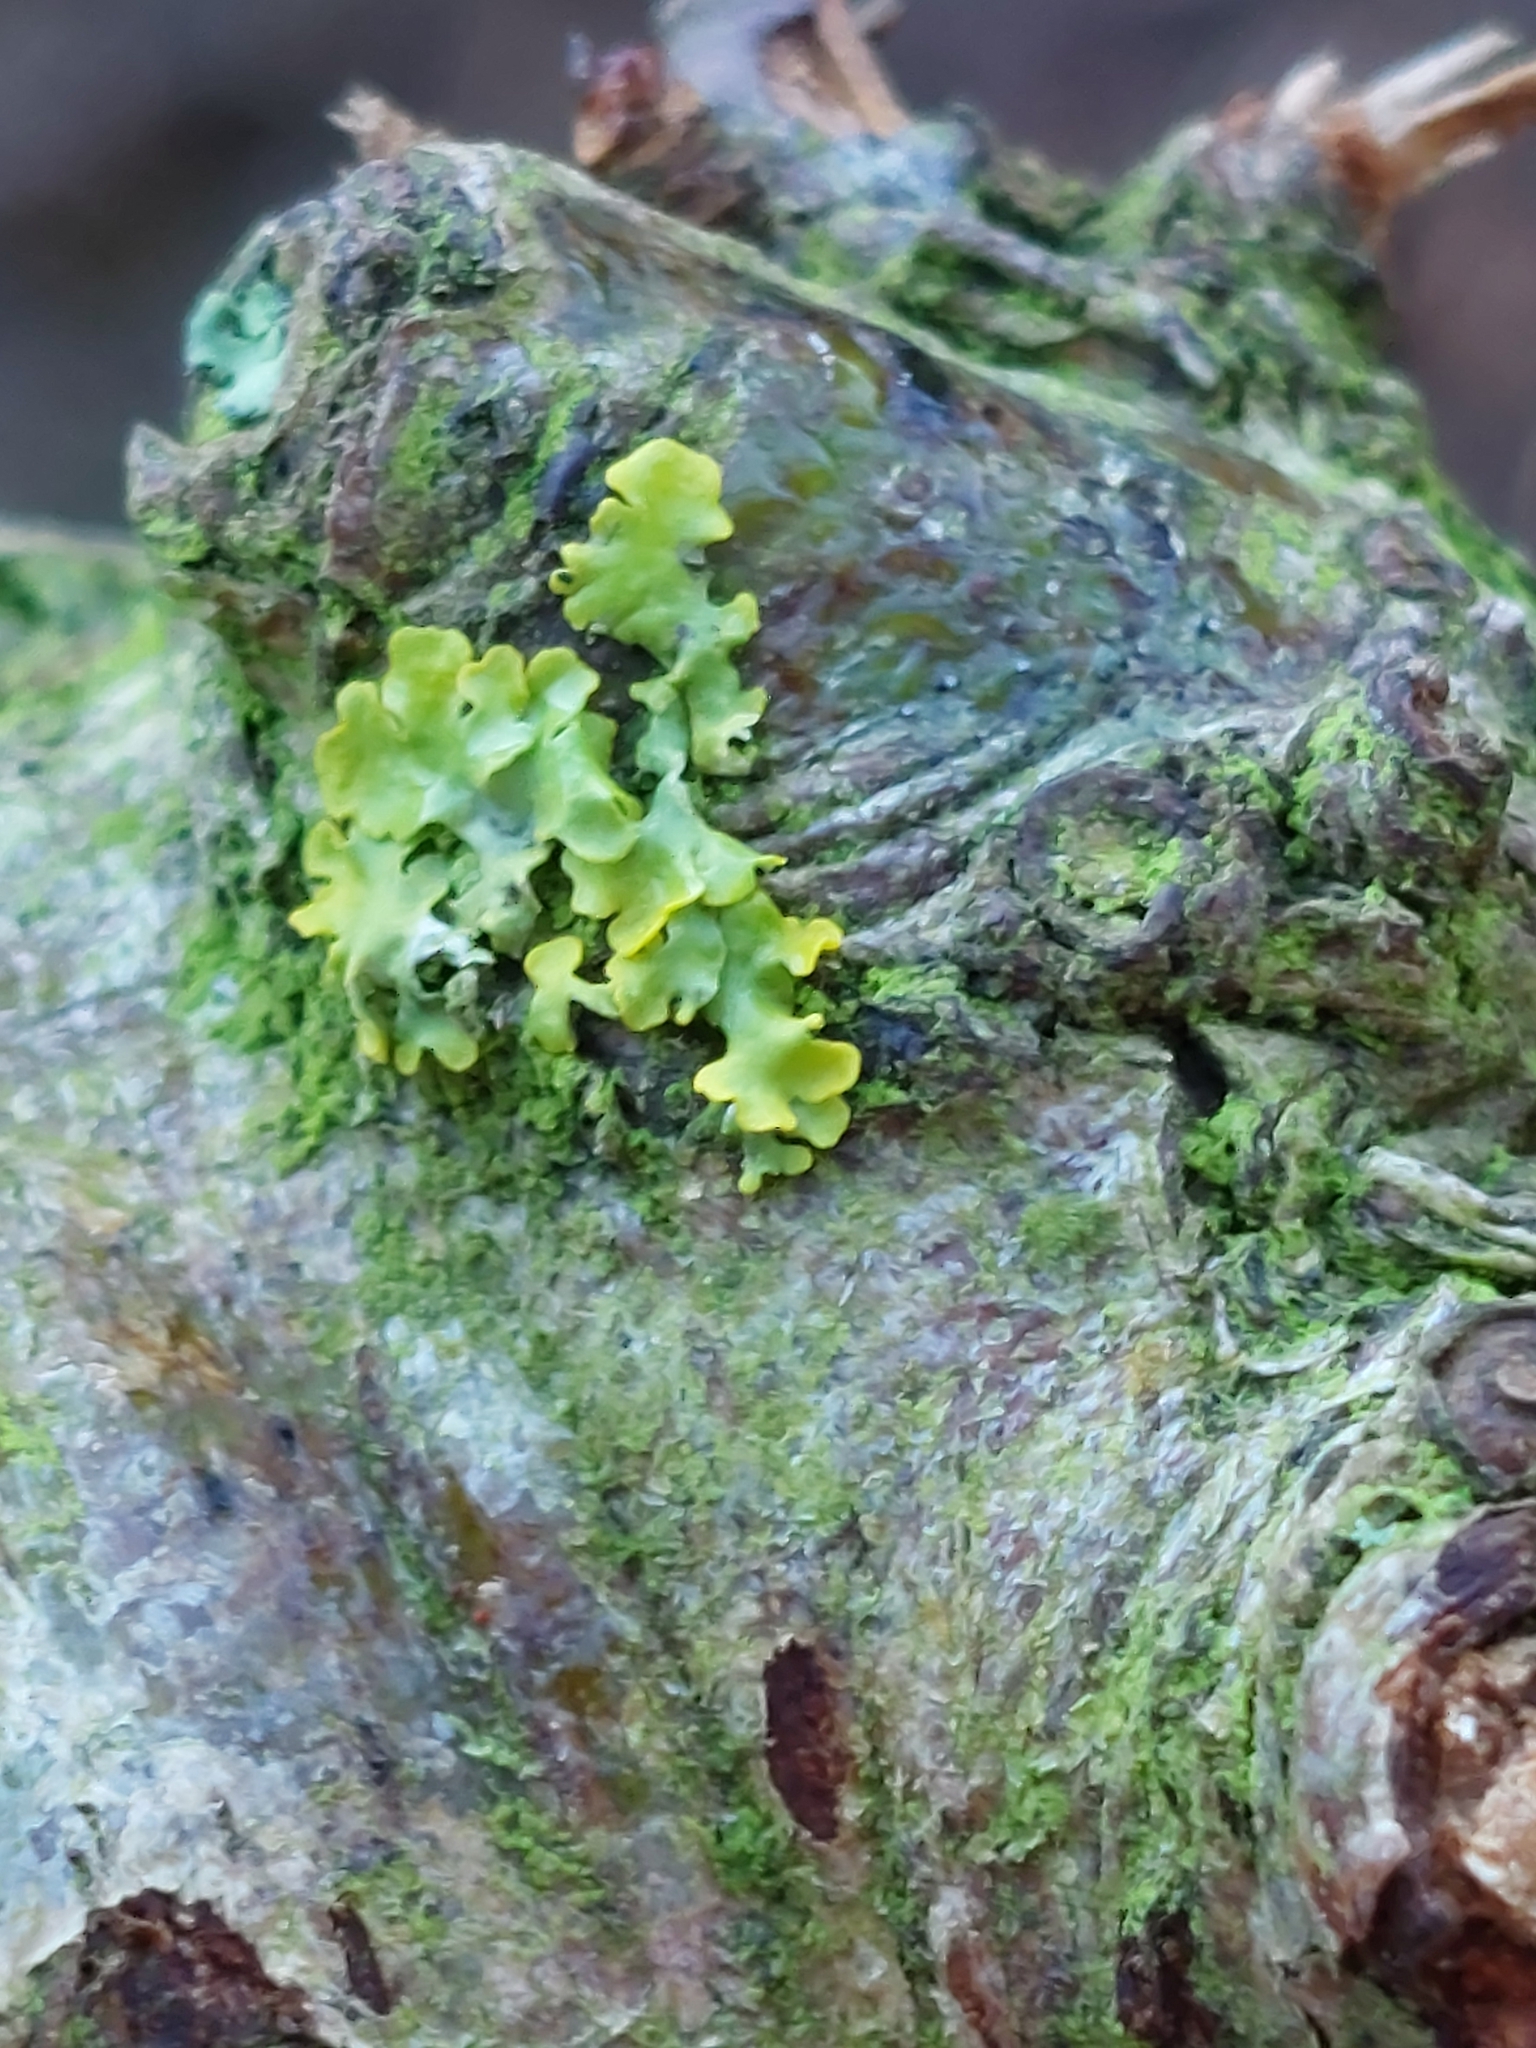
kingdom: Fungi
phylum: Ascomycota
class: Lecanoromycetes
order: Teloschistales
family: Teloschistaceae
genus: Xanthoria
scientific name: Xanthoria parietina
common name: Common orange lichen
